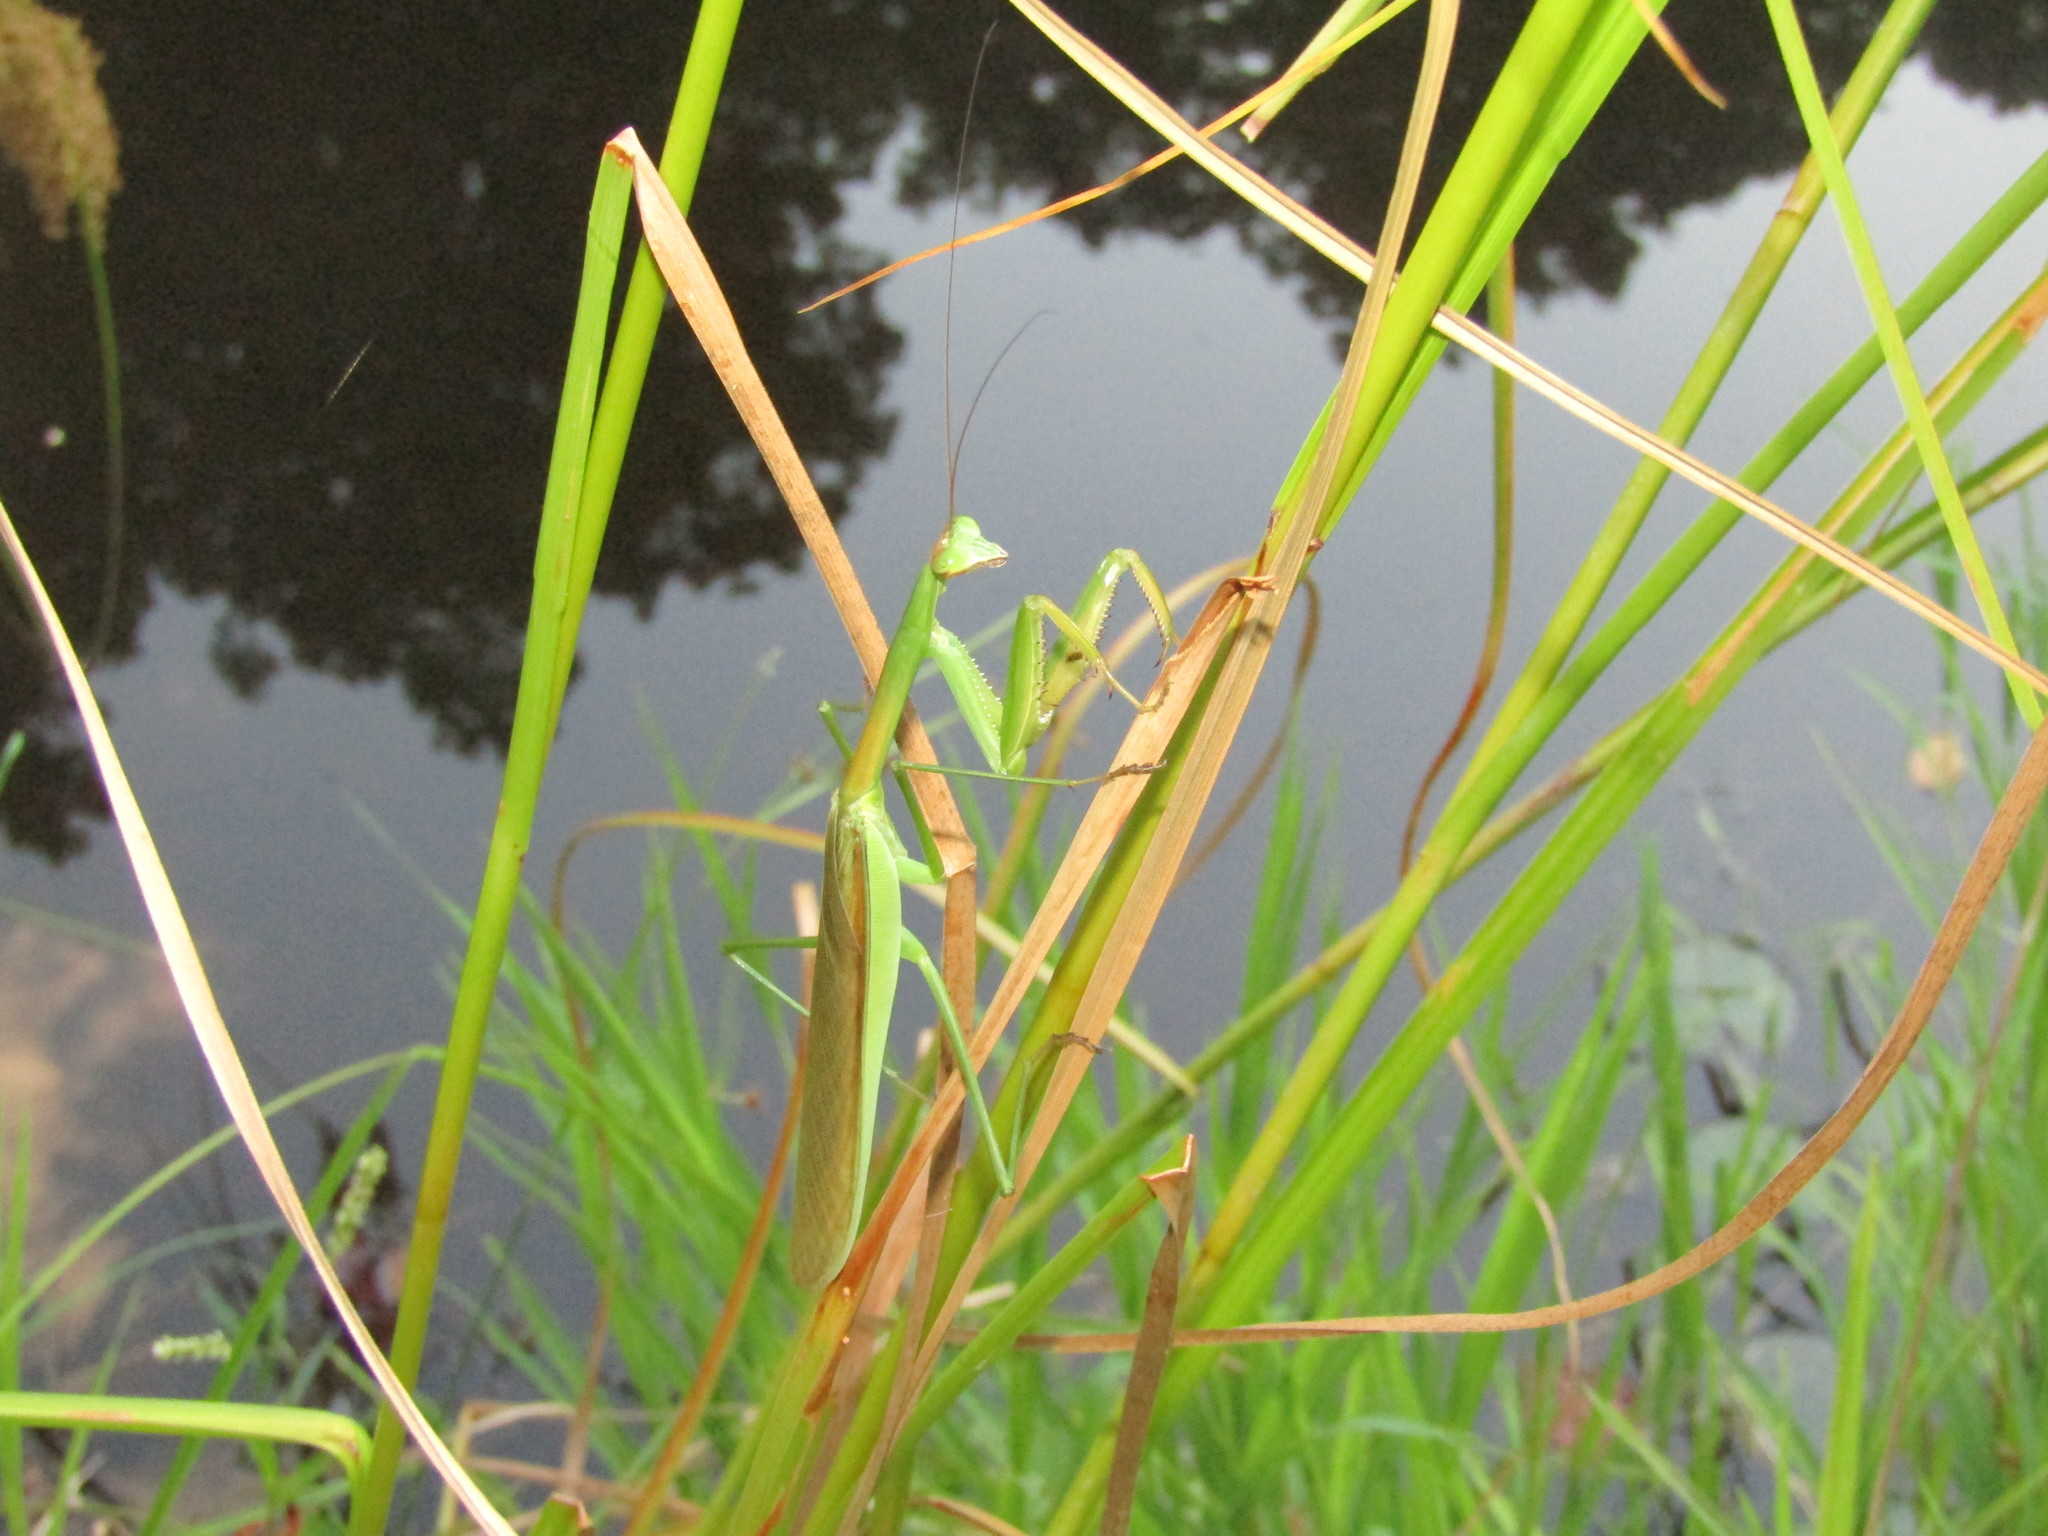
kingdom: Animalia
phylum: Arthropoda
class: Insecta
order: Mantodea
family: Mantidae
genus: Tenodera
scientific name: Tenodera sinensis
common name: Chinese mantis
